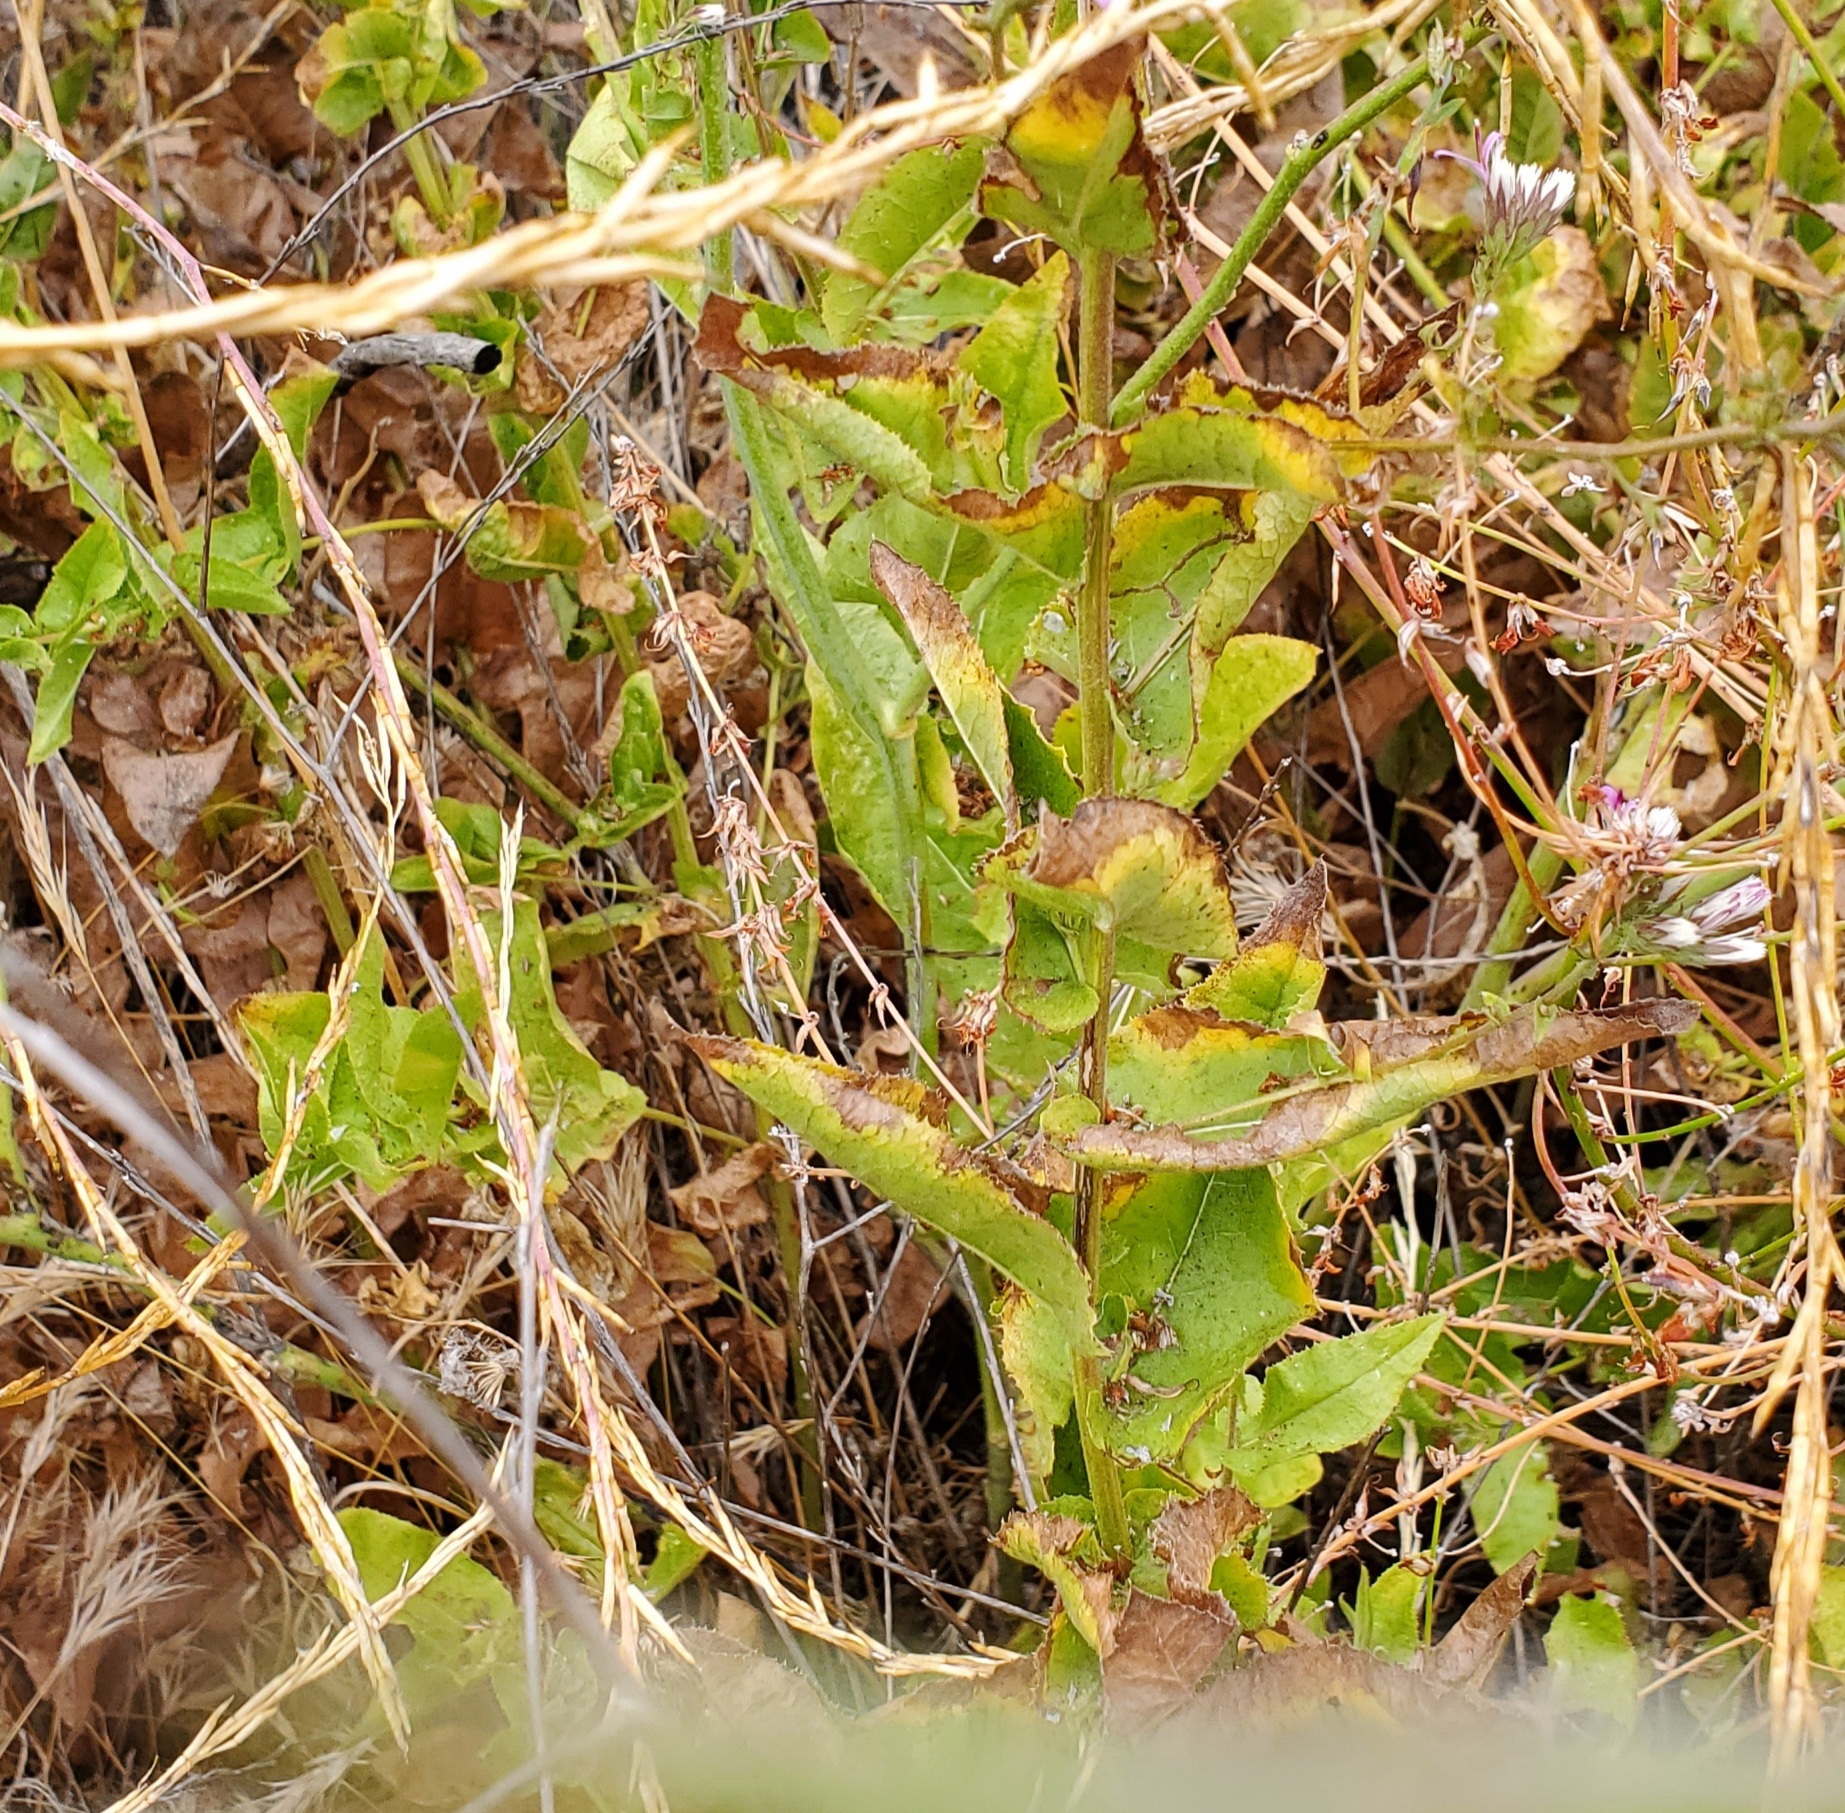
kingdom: Plantae
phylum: Tracheophyta
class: Magnoliopsida
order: Asterales
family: Asteraceae
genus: Acourtia
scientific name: Acourtia microcephala
